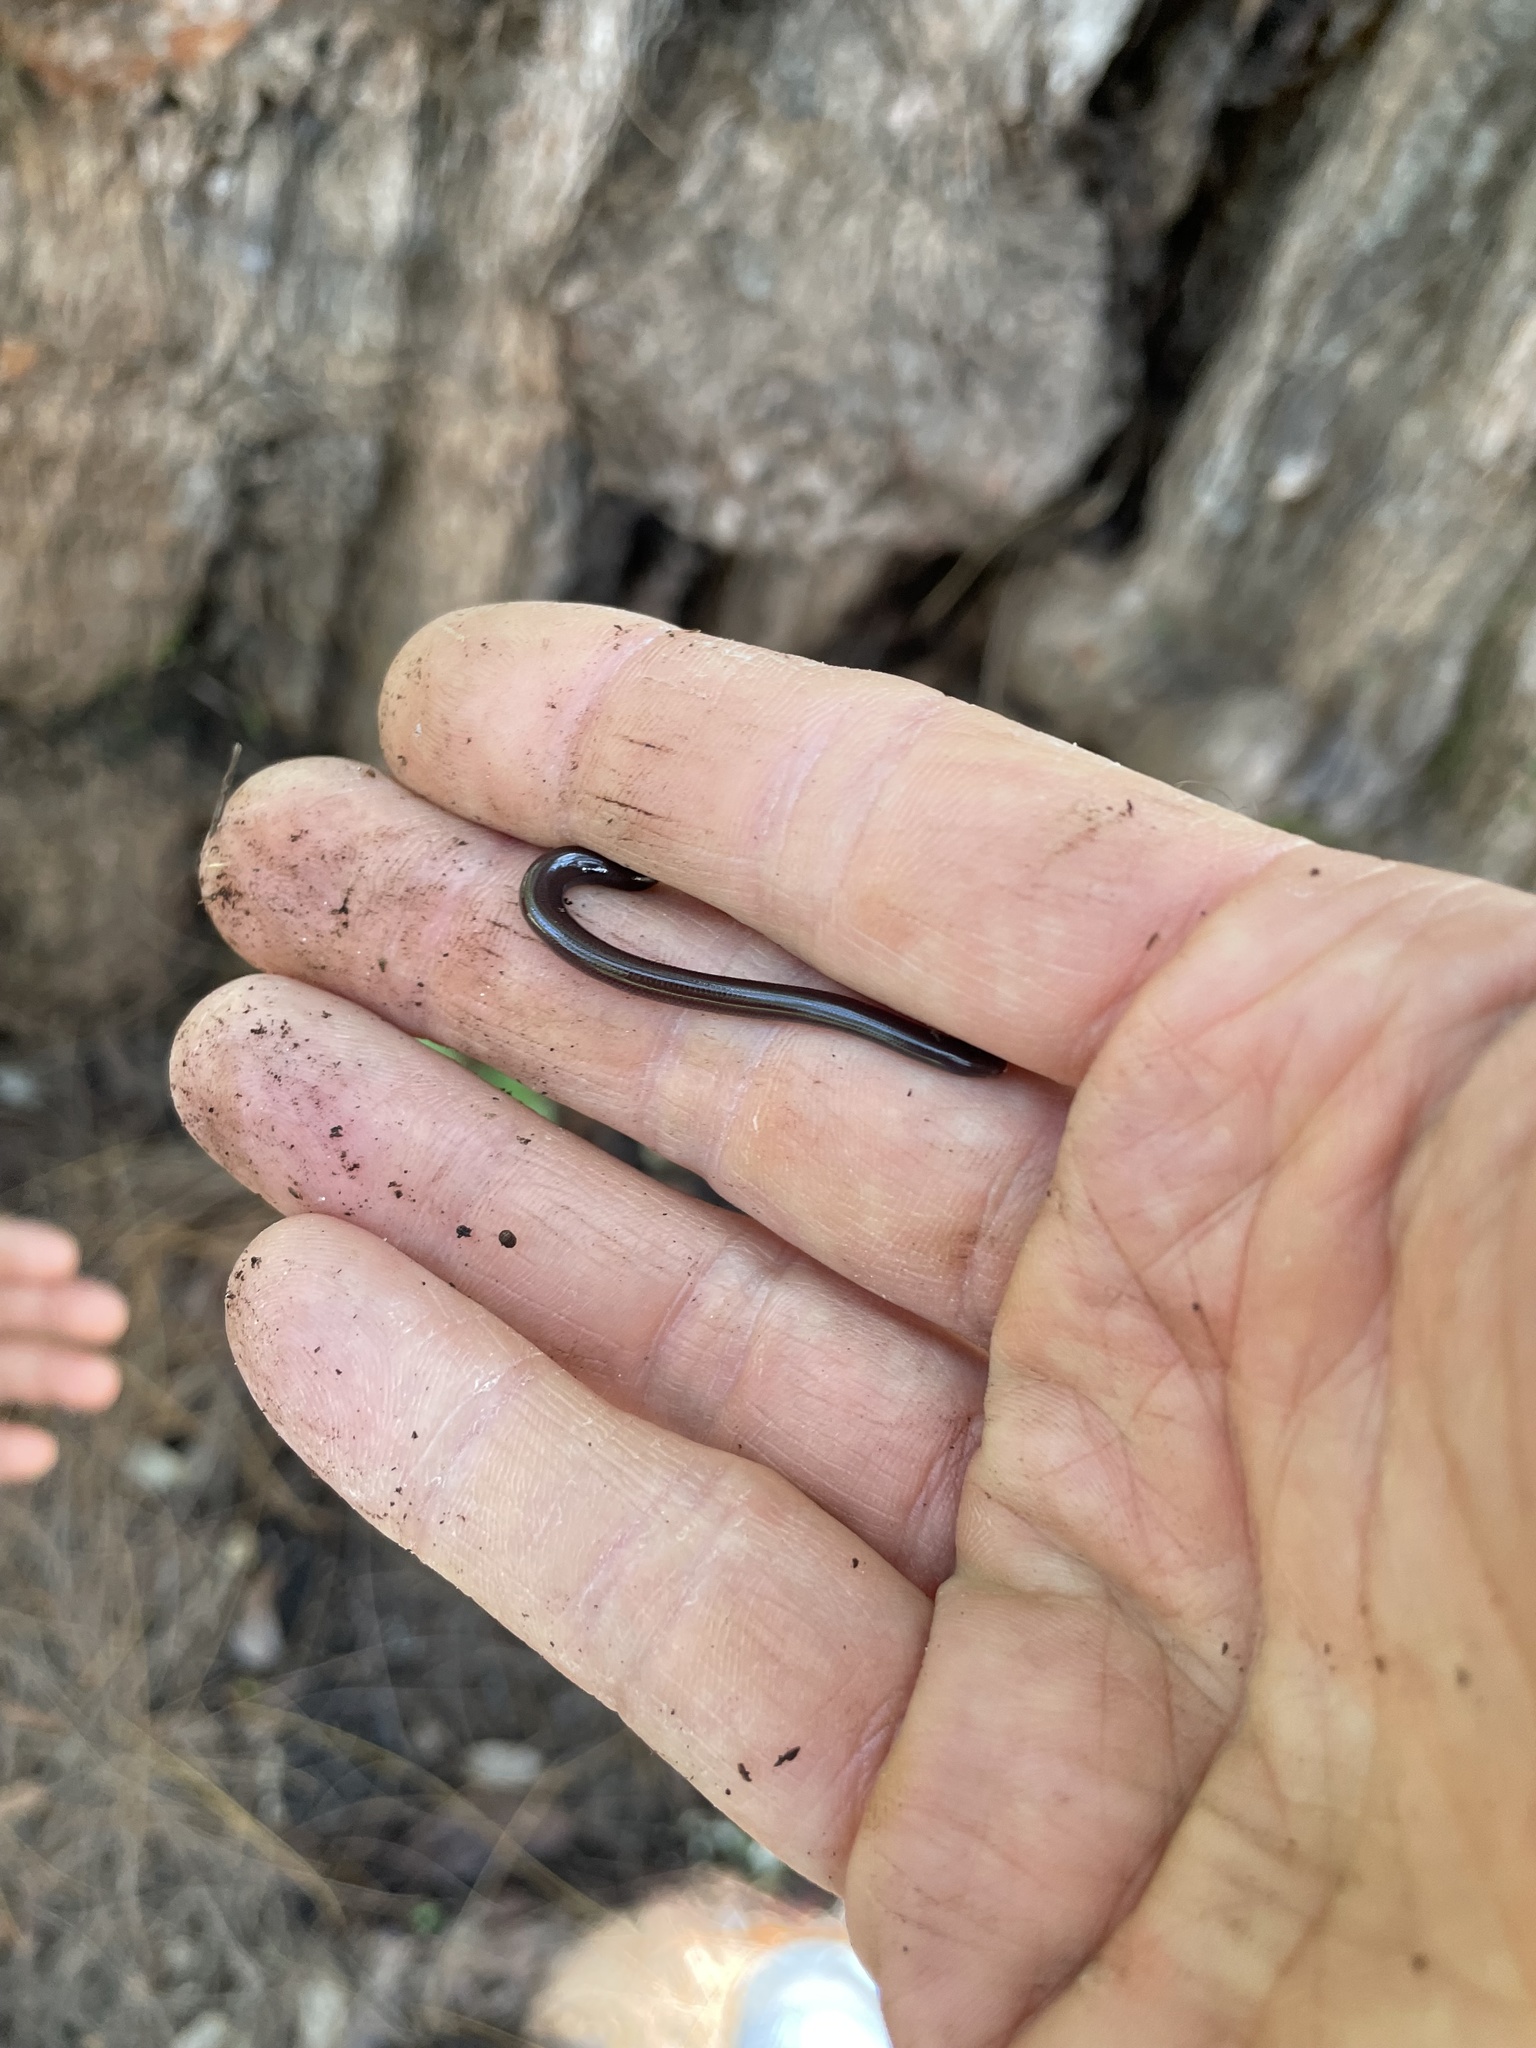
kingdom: Animalia
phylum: Chordata
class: Squamata
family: Typhlopidae
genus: Indotyphlops
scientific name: Indotyphlops braminus
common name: Brahminy blindsnake
